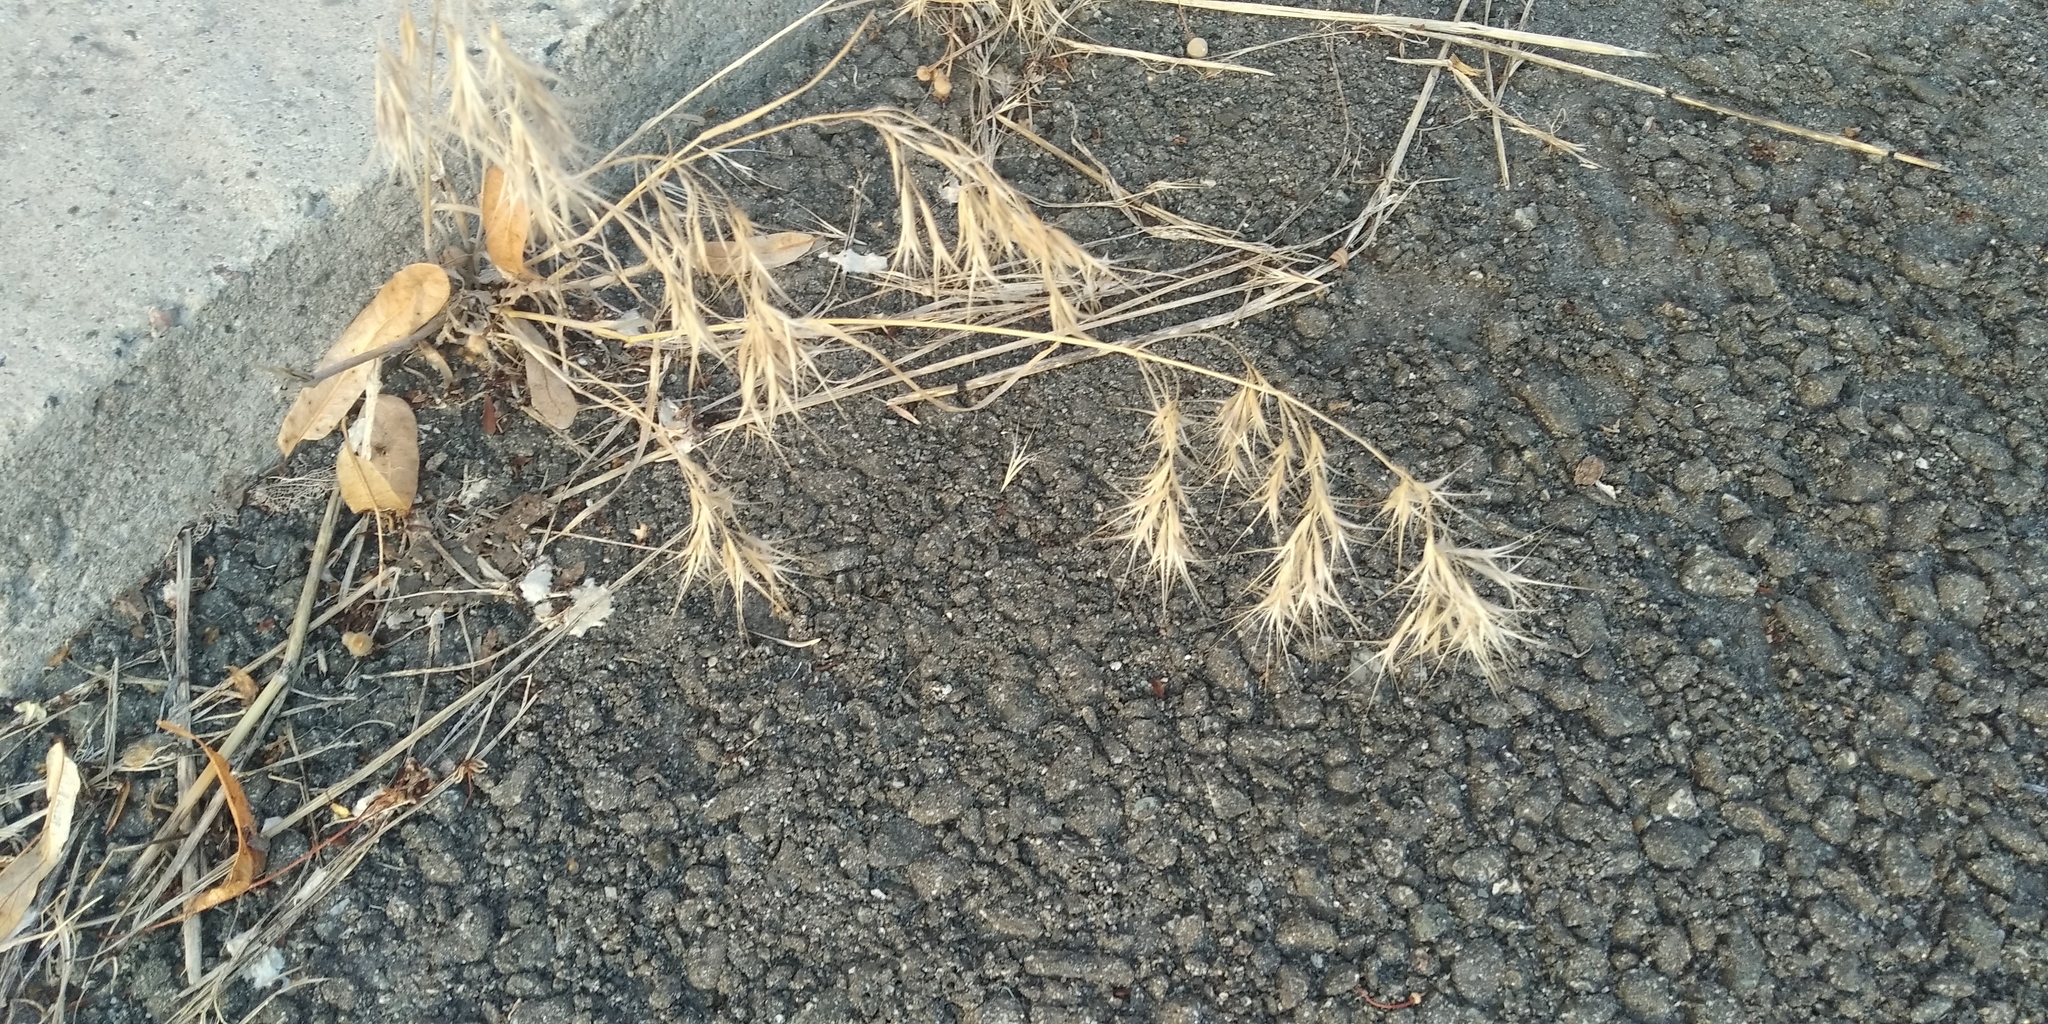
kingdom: Plantae
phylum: Tracheophyta
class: Liliopsida
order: Poales
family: Poaceae
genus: Bromus
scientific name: Bromus tectorum
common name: Cheatgrass
